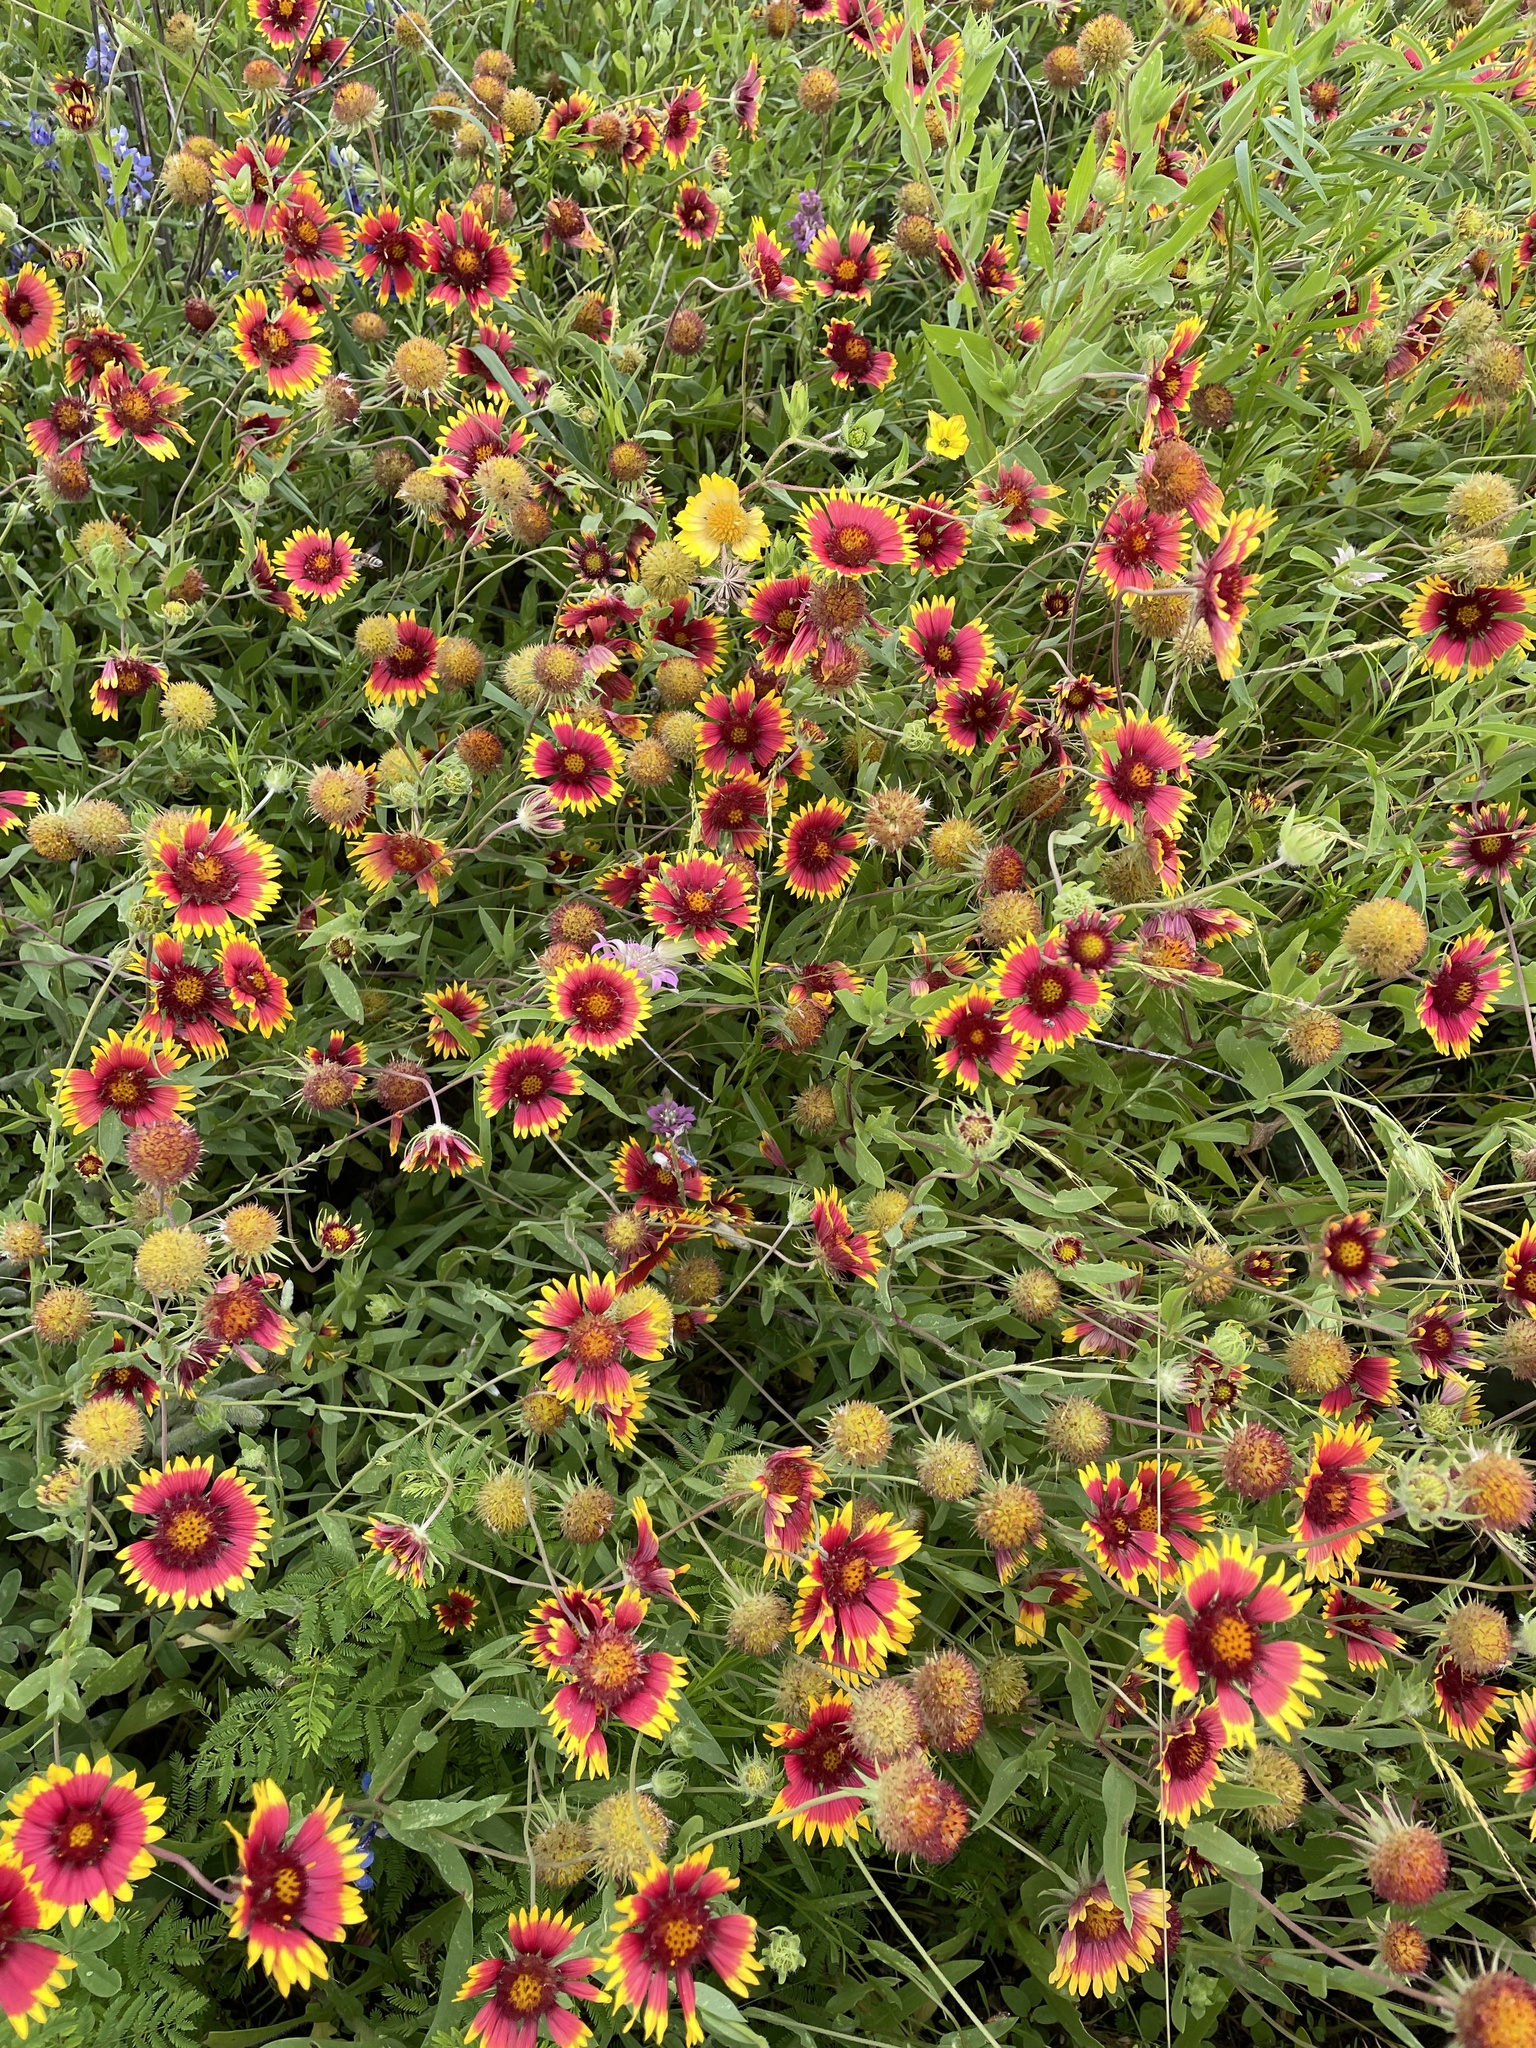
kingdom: Plantae
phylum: Tracheophyta
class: Magnoliopsida
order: Asterales
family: Asteraceae
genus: Gaillardia
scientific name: Gaillardia pulchella
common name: Firewheel
